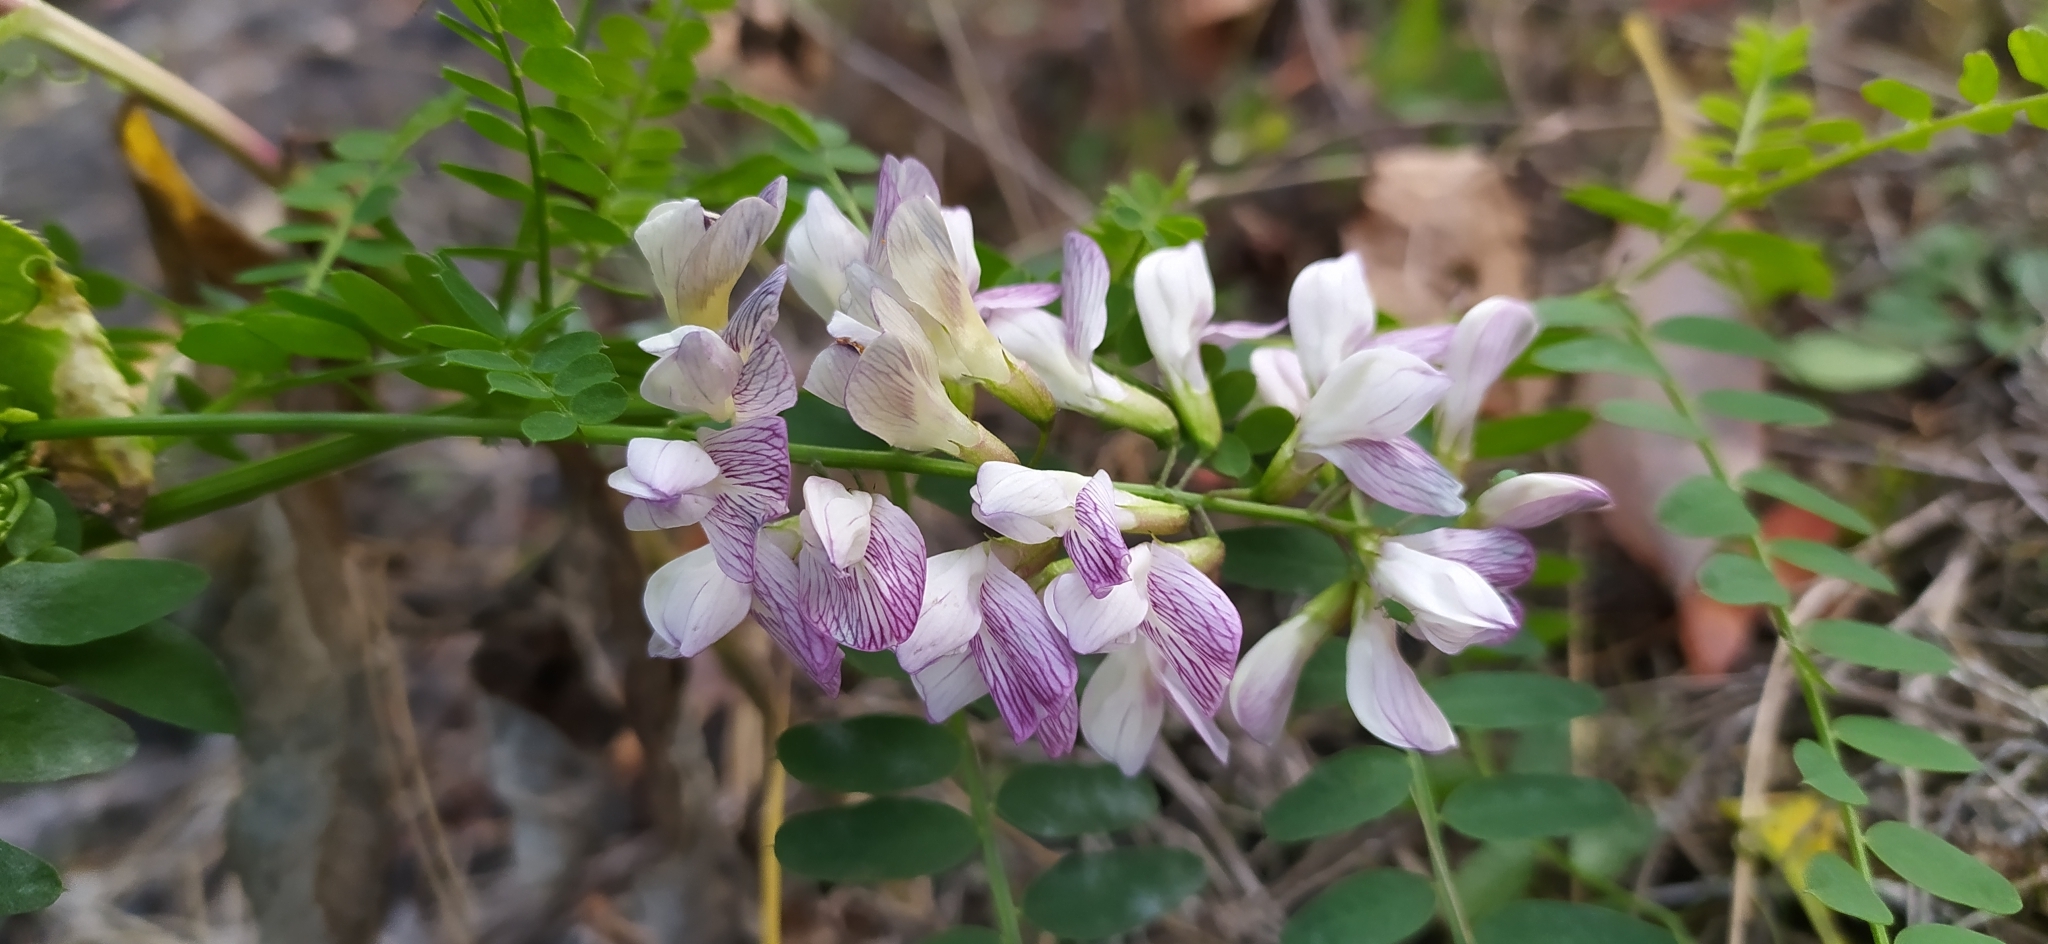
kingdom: Plantae
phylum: Tracheophyta
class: Magnoliopsida
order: Fabales
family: Fabaceae
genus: Vicia
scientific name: Vicia sylvatica
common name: Wood vetch
